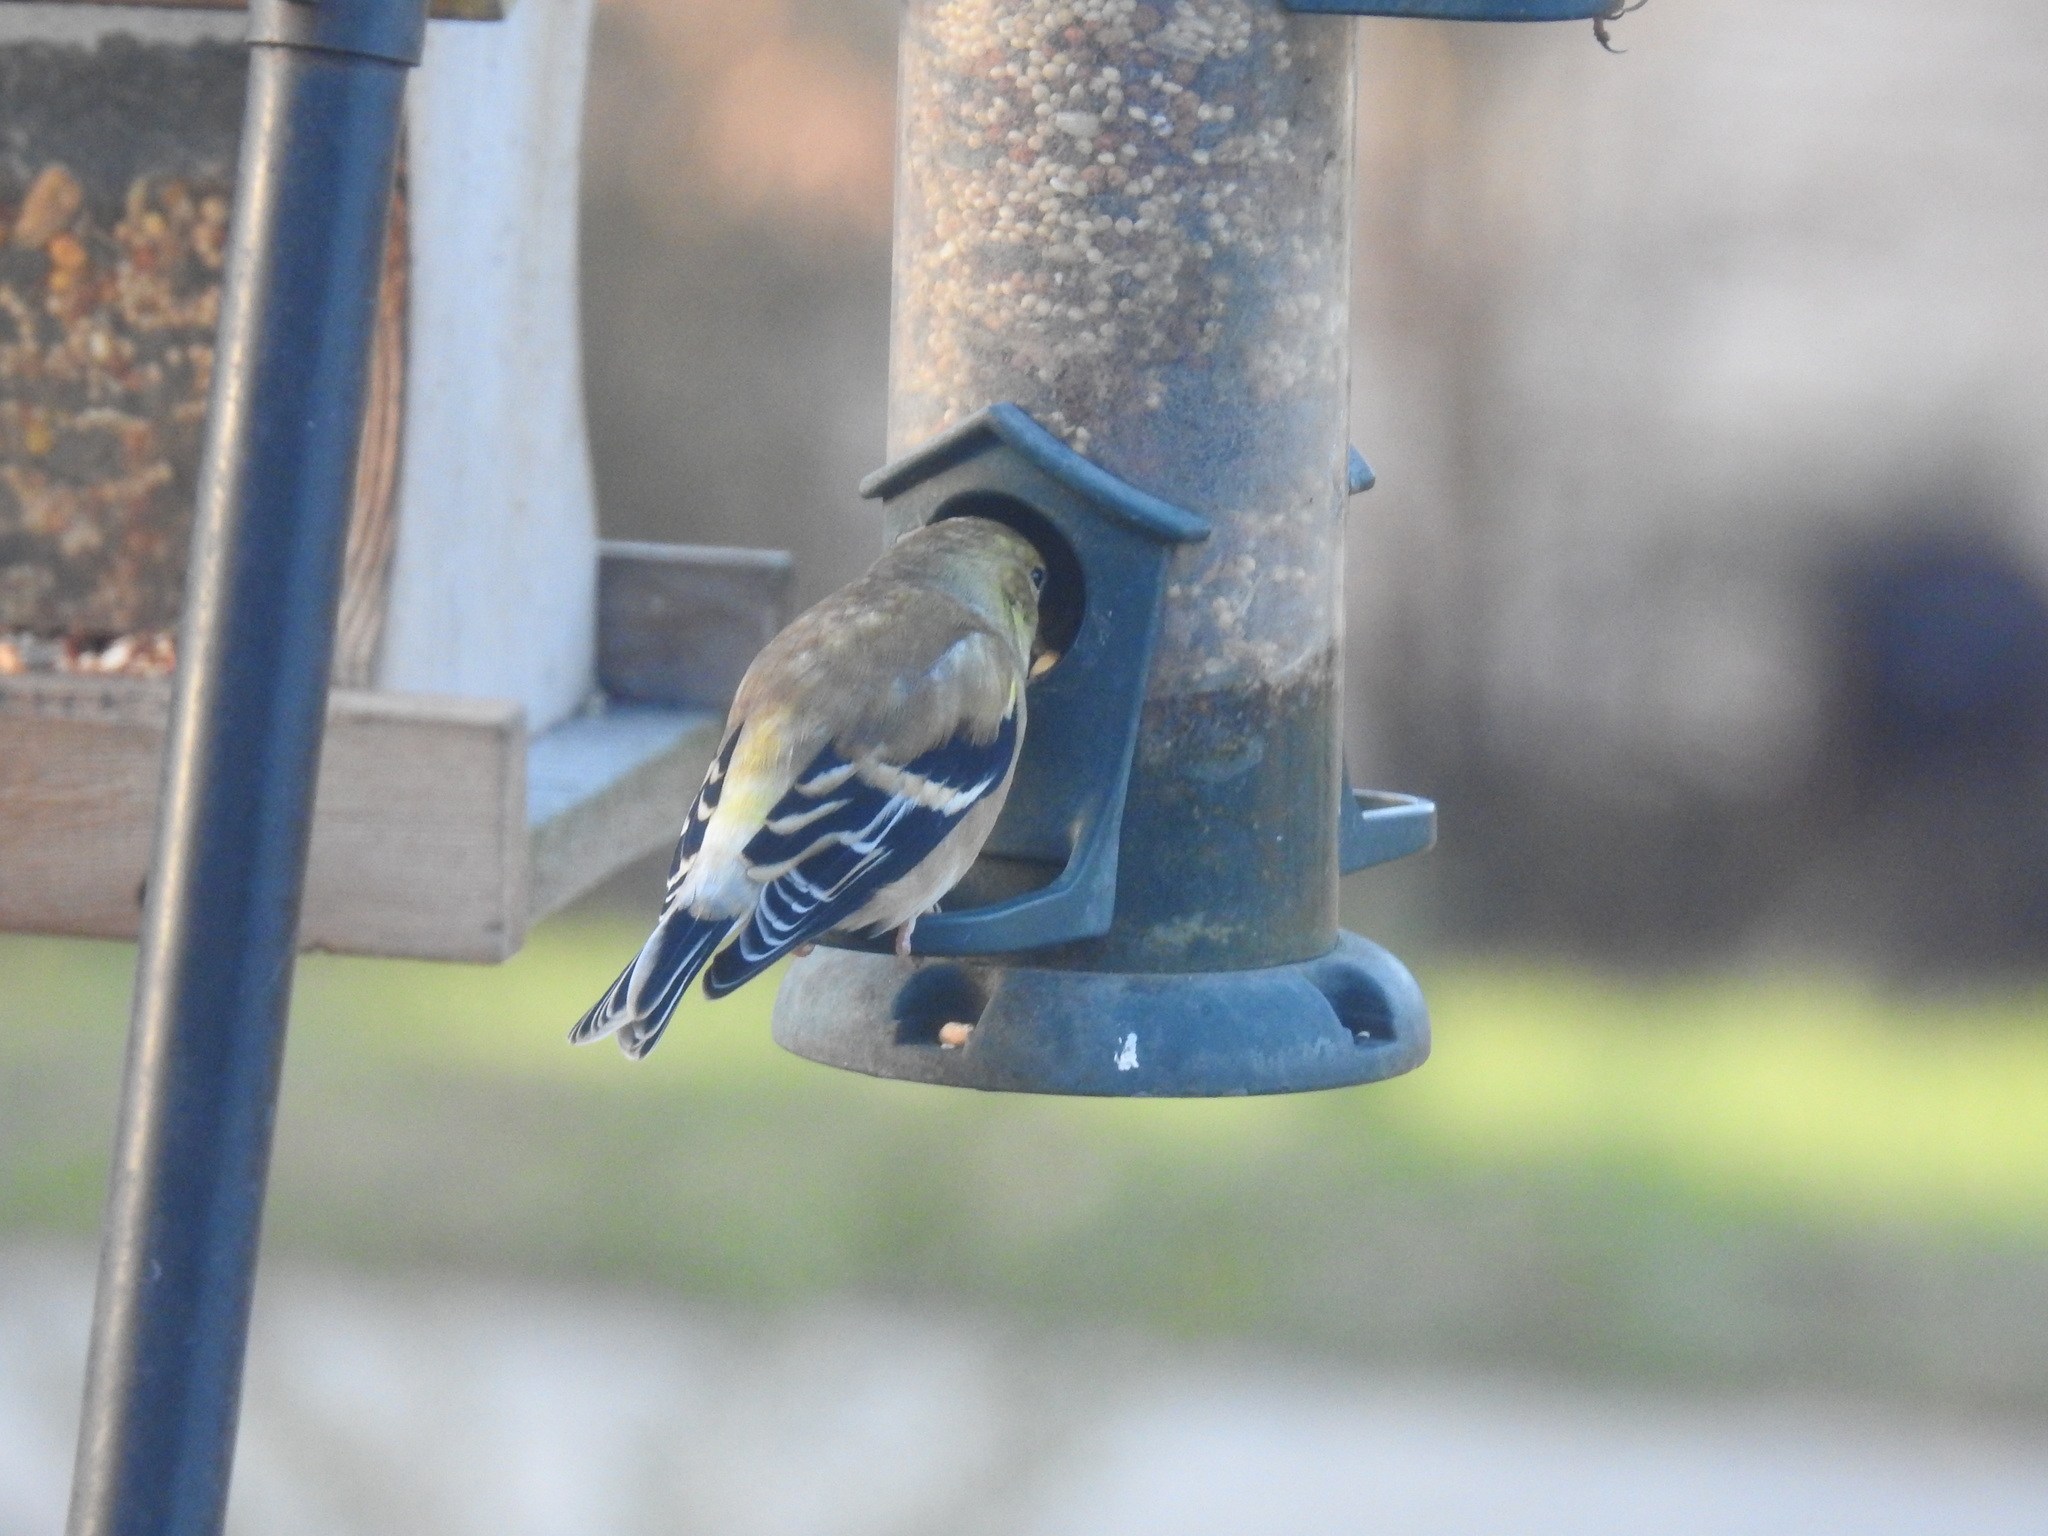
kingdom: Animalia
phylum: Chordata
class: Aves
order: Passeriformes
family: Fringillidae
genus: Spinus
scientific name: Spinus tristis
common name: American goldfinch
